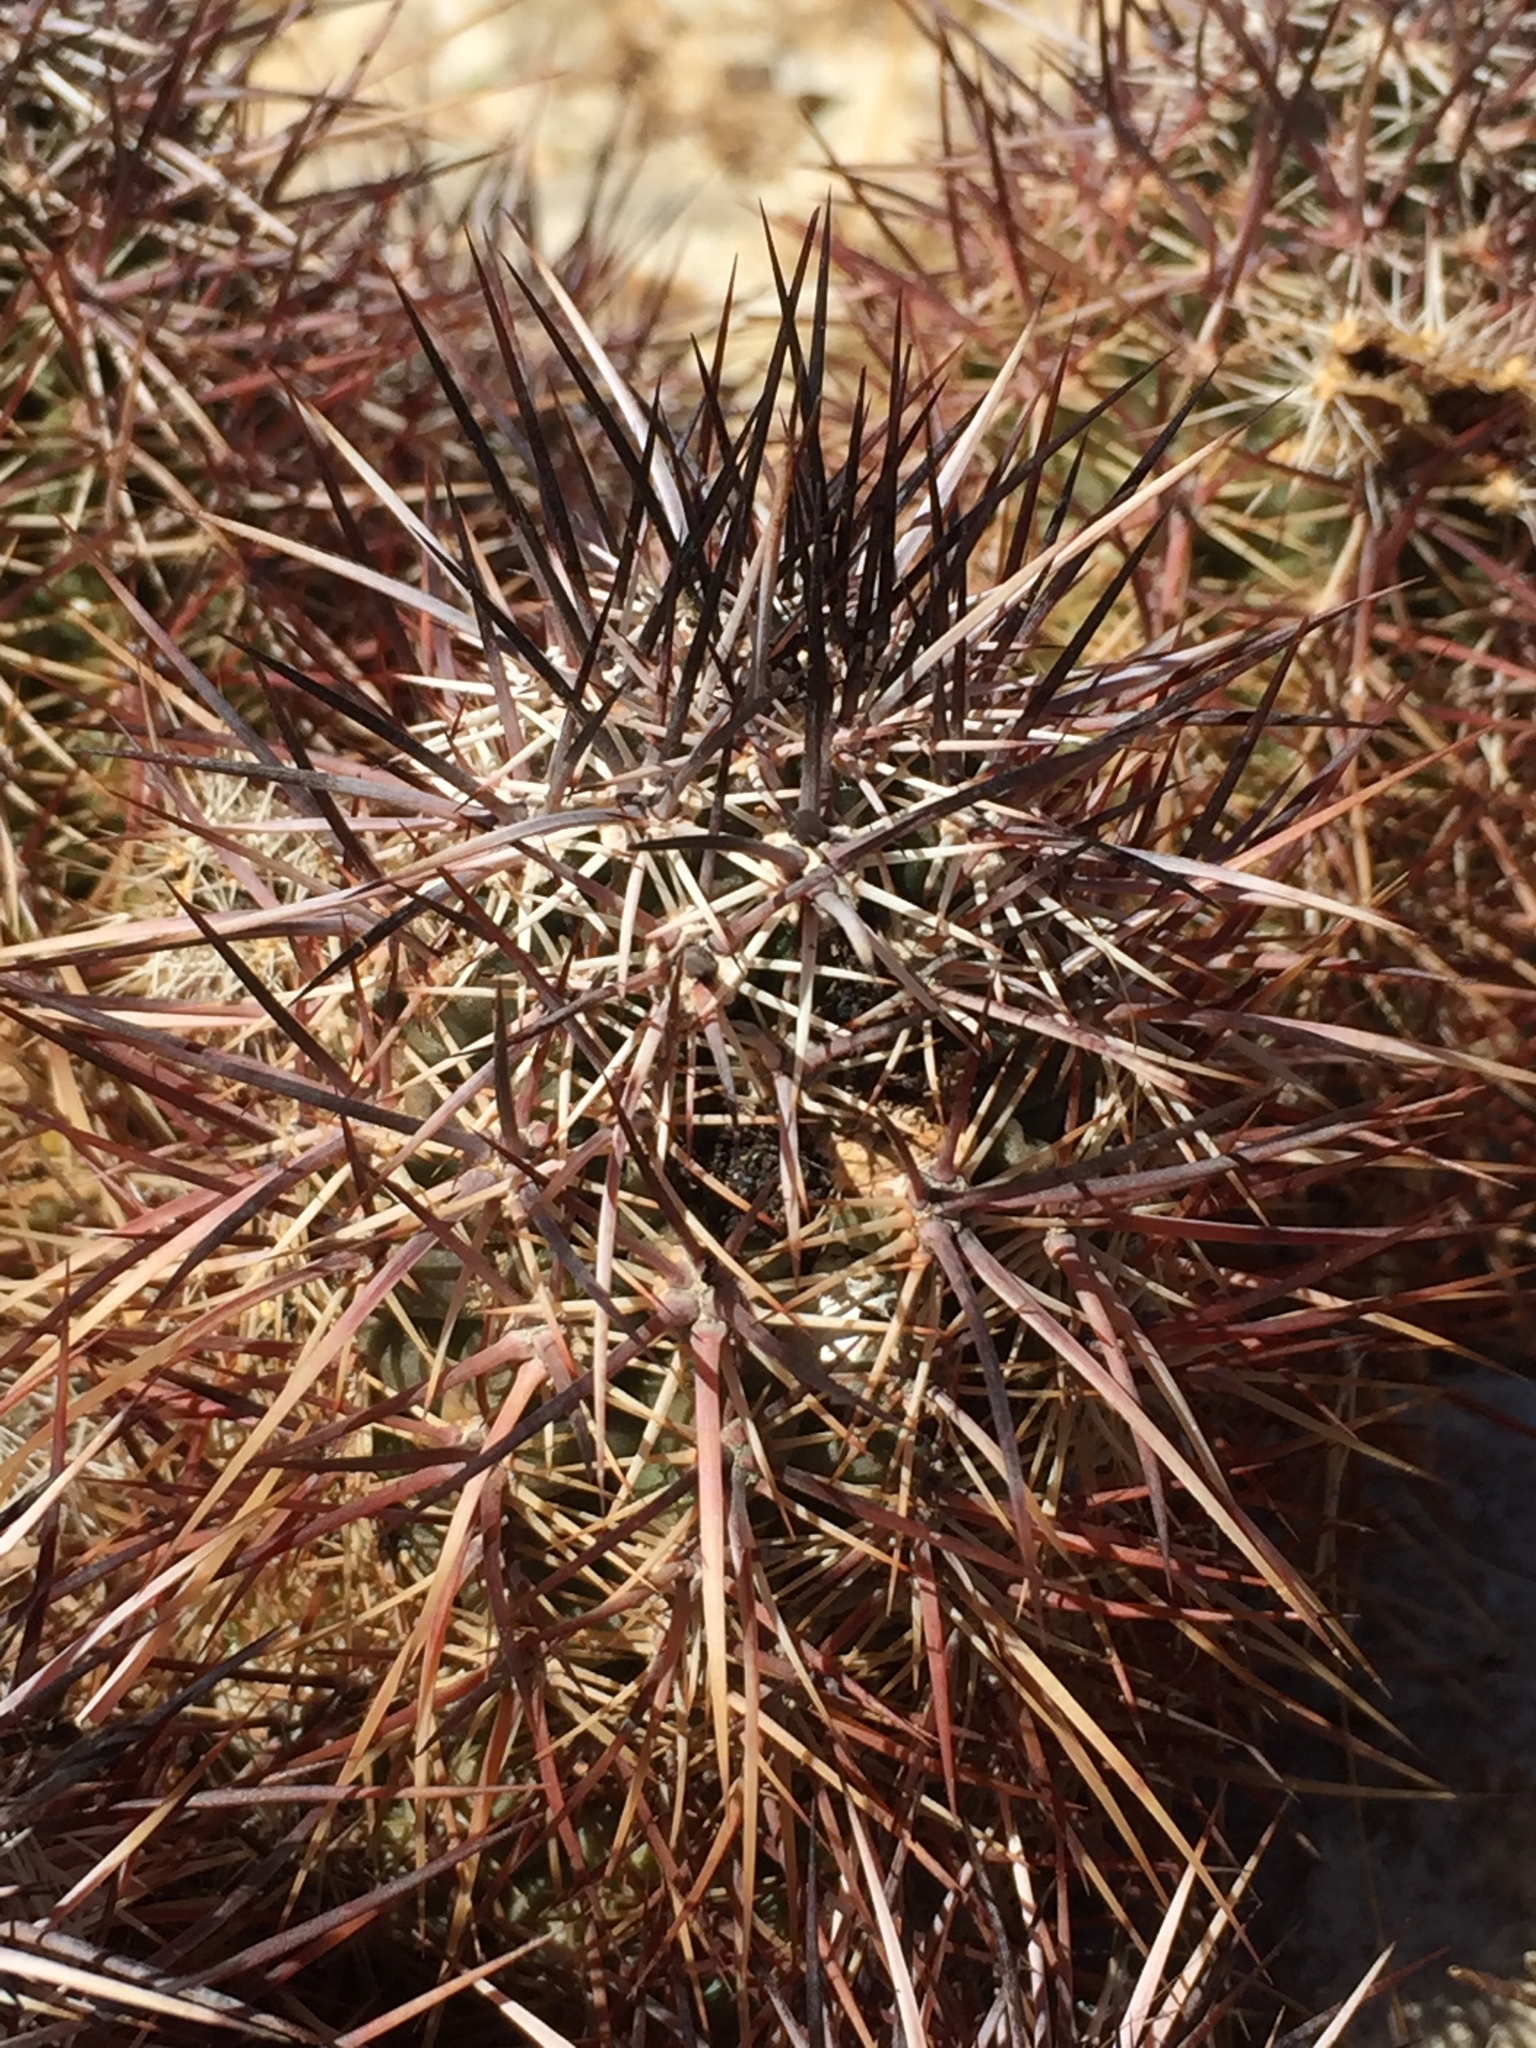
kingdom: Plantae
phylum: Tracheophyta
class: Magnoliopsida
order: Caryophyllales
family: Cactaceae
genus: Echinocereus
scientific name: Echinocereus engelmannii
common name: Engelmann's hedgehog cactus
